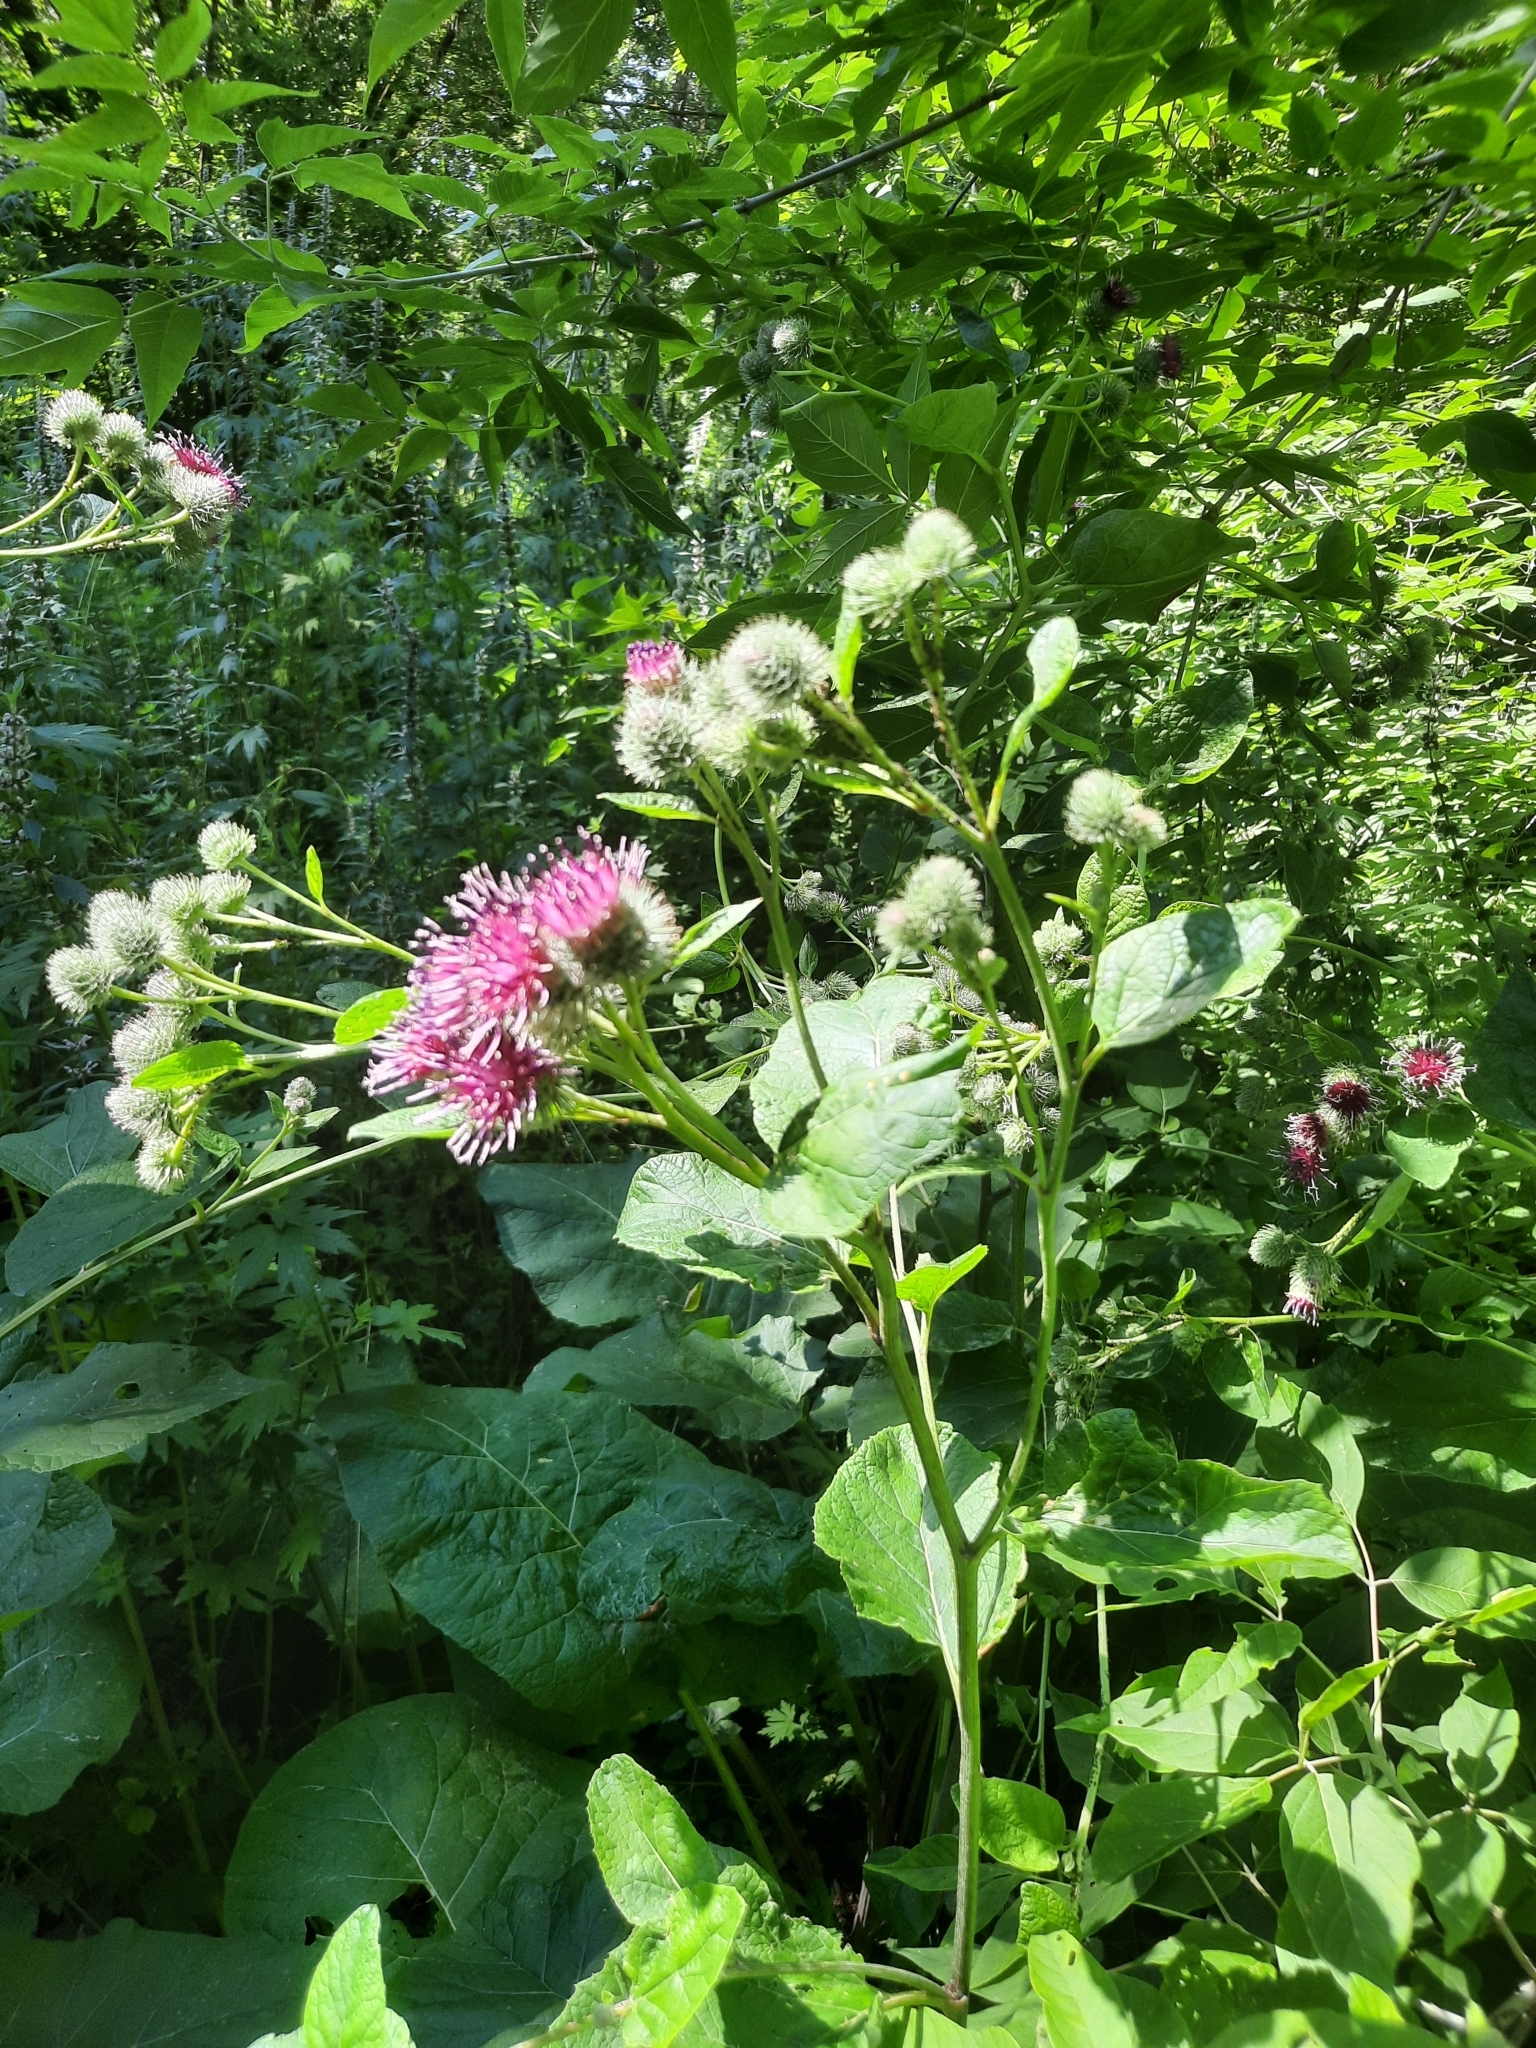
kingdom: Plantae
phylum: Tracheophyta
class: Magnoliopsida
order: Asterales
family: Asteraceae
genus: Arctium
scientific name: Arctium tomentosum
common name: Woolly burdock
